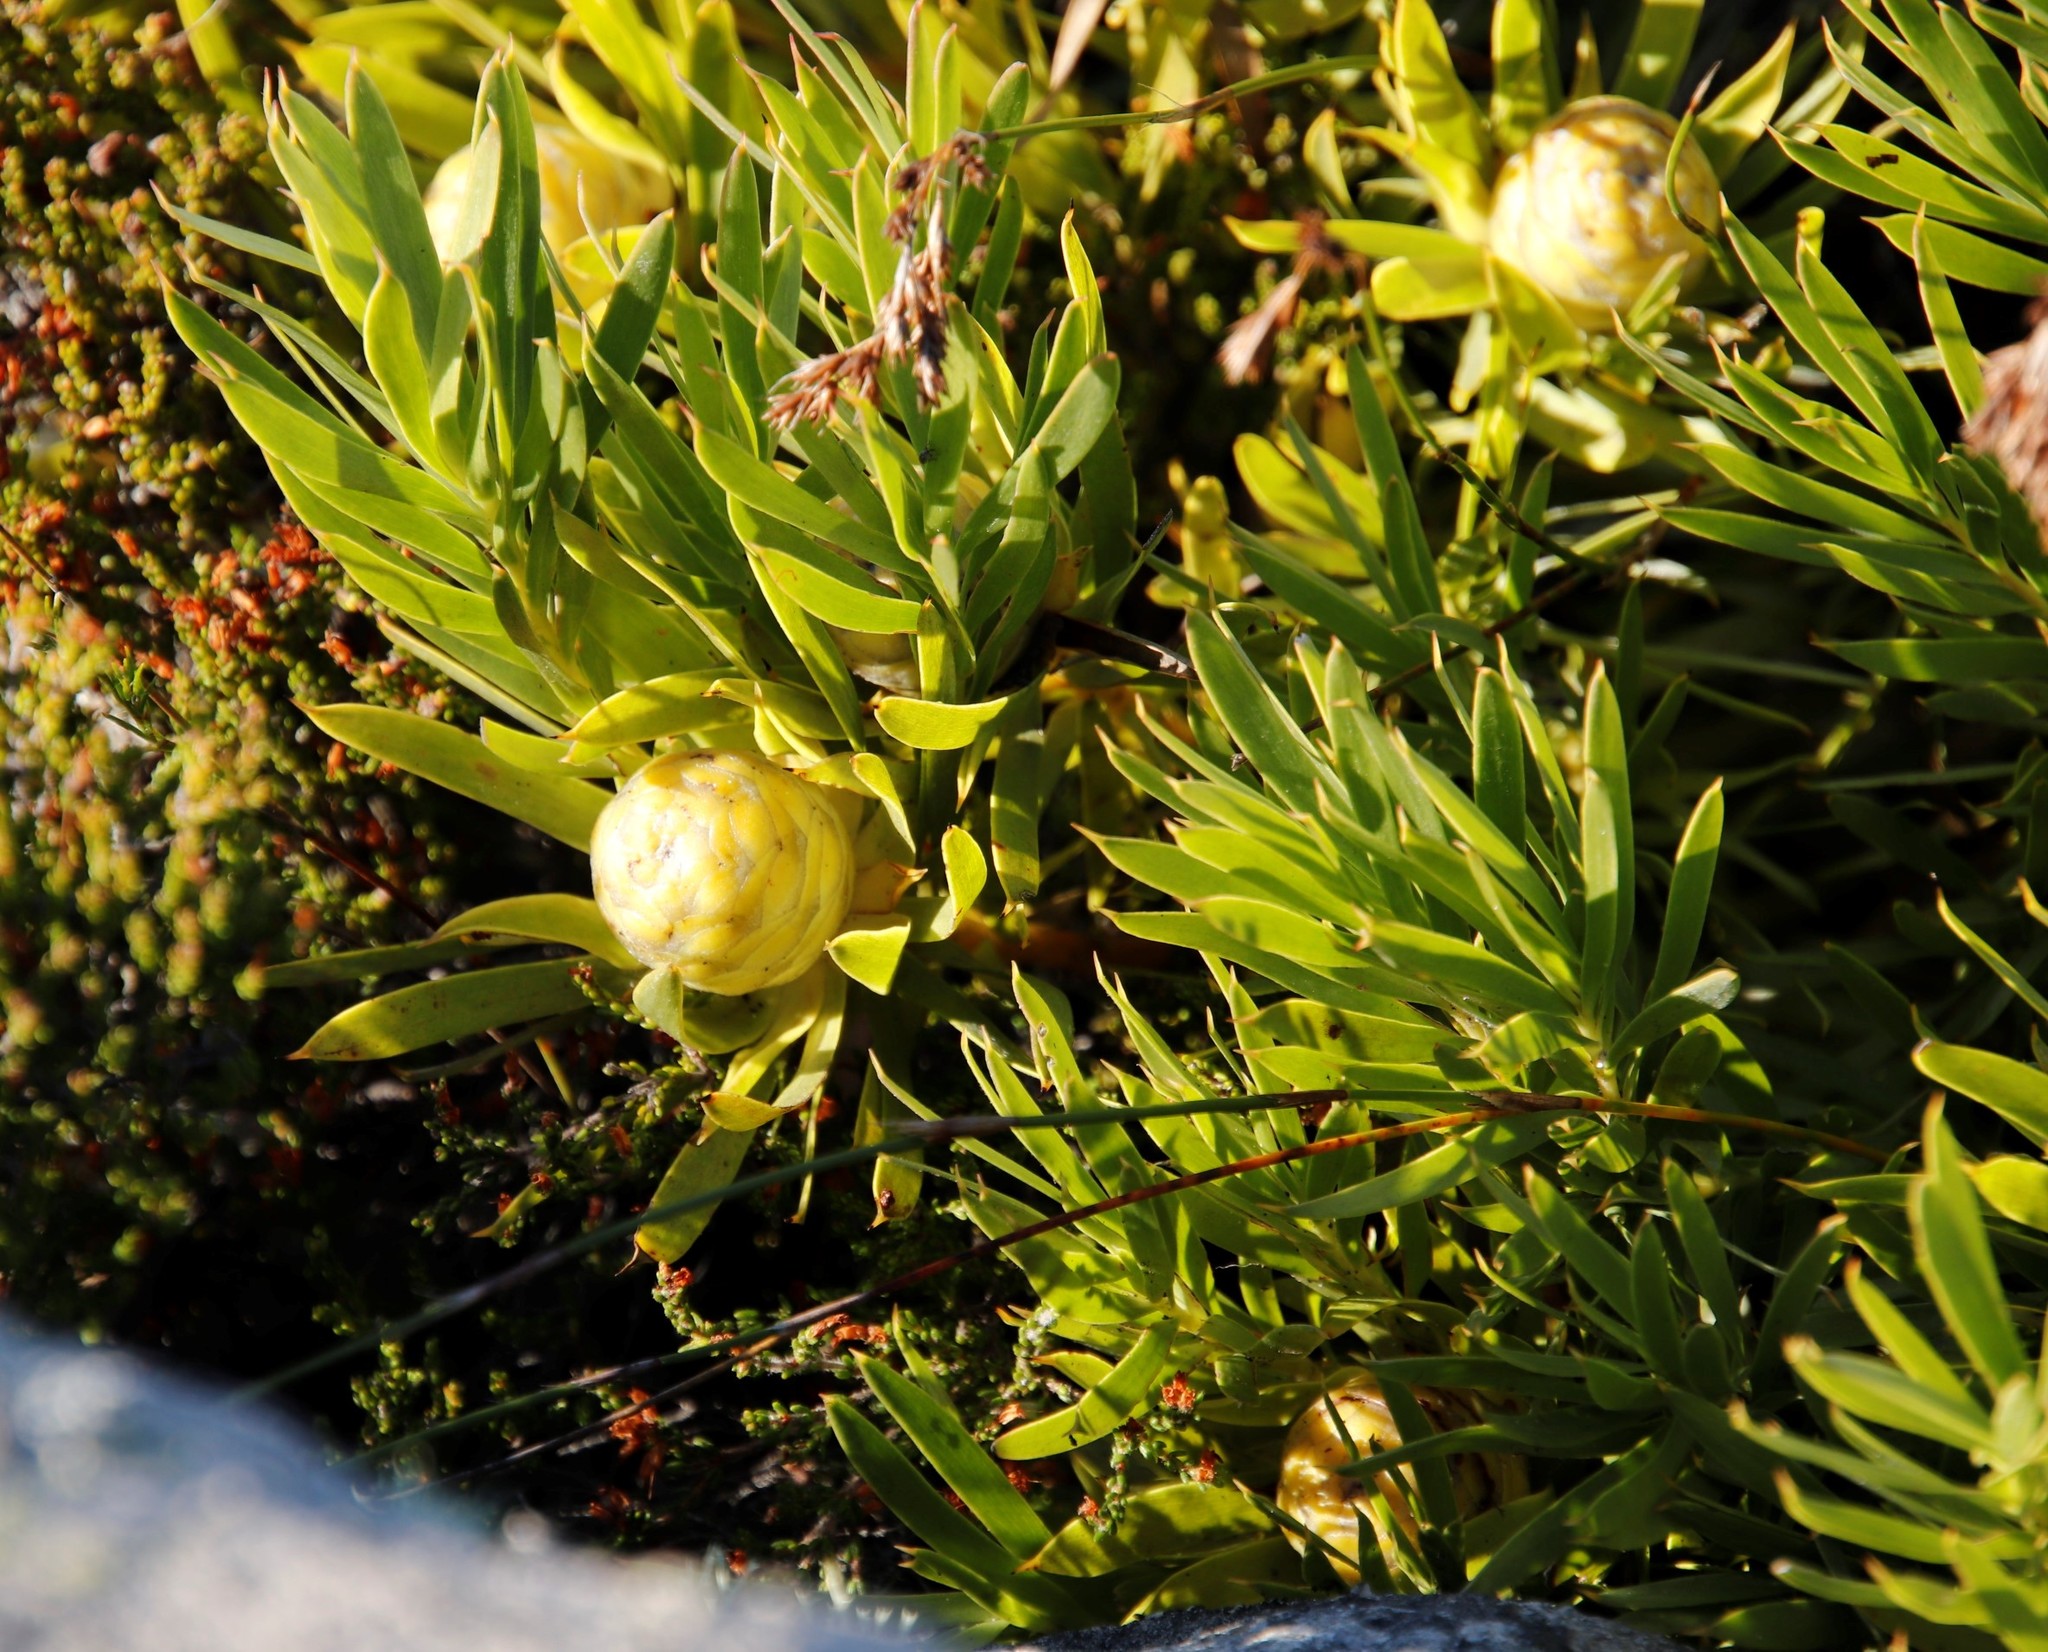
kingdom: Plantae
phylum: Tracheophyta
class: Magnoliopsida
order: Proteales
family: Proteaceae
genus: Leucadendron
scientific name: Leucadendron xanthoconus
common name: Sickle-leaf conebush
